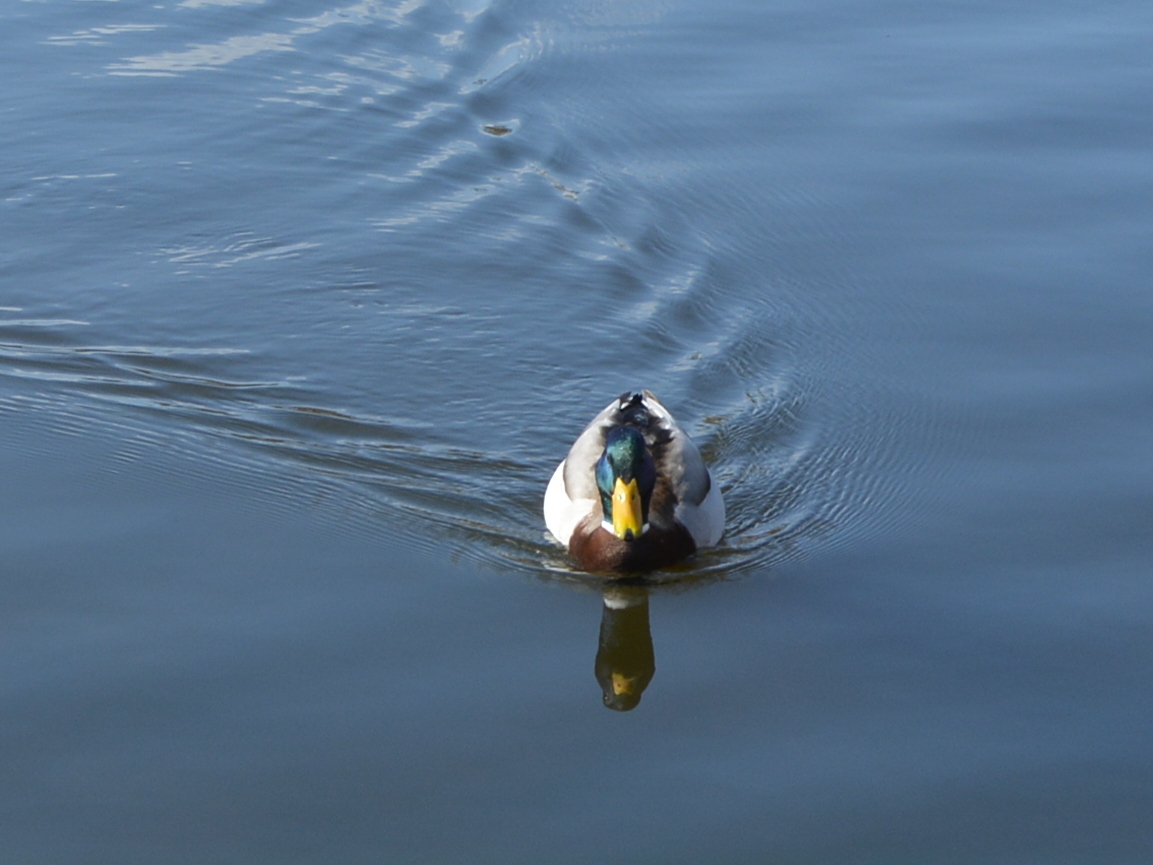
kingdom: Animalia
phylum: Chordata
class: Aves
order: Anseriformes
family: Anatidae
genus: Anas
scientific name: Anas platyrhynchos
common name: Mallard
